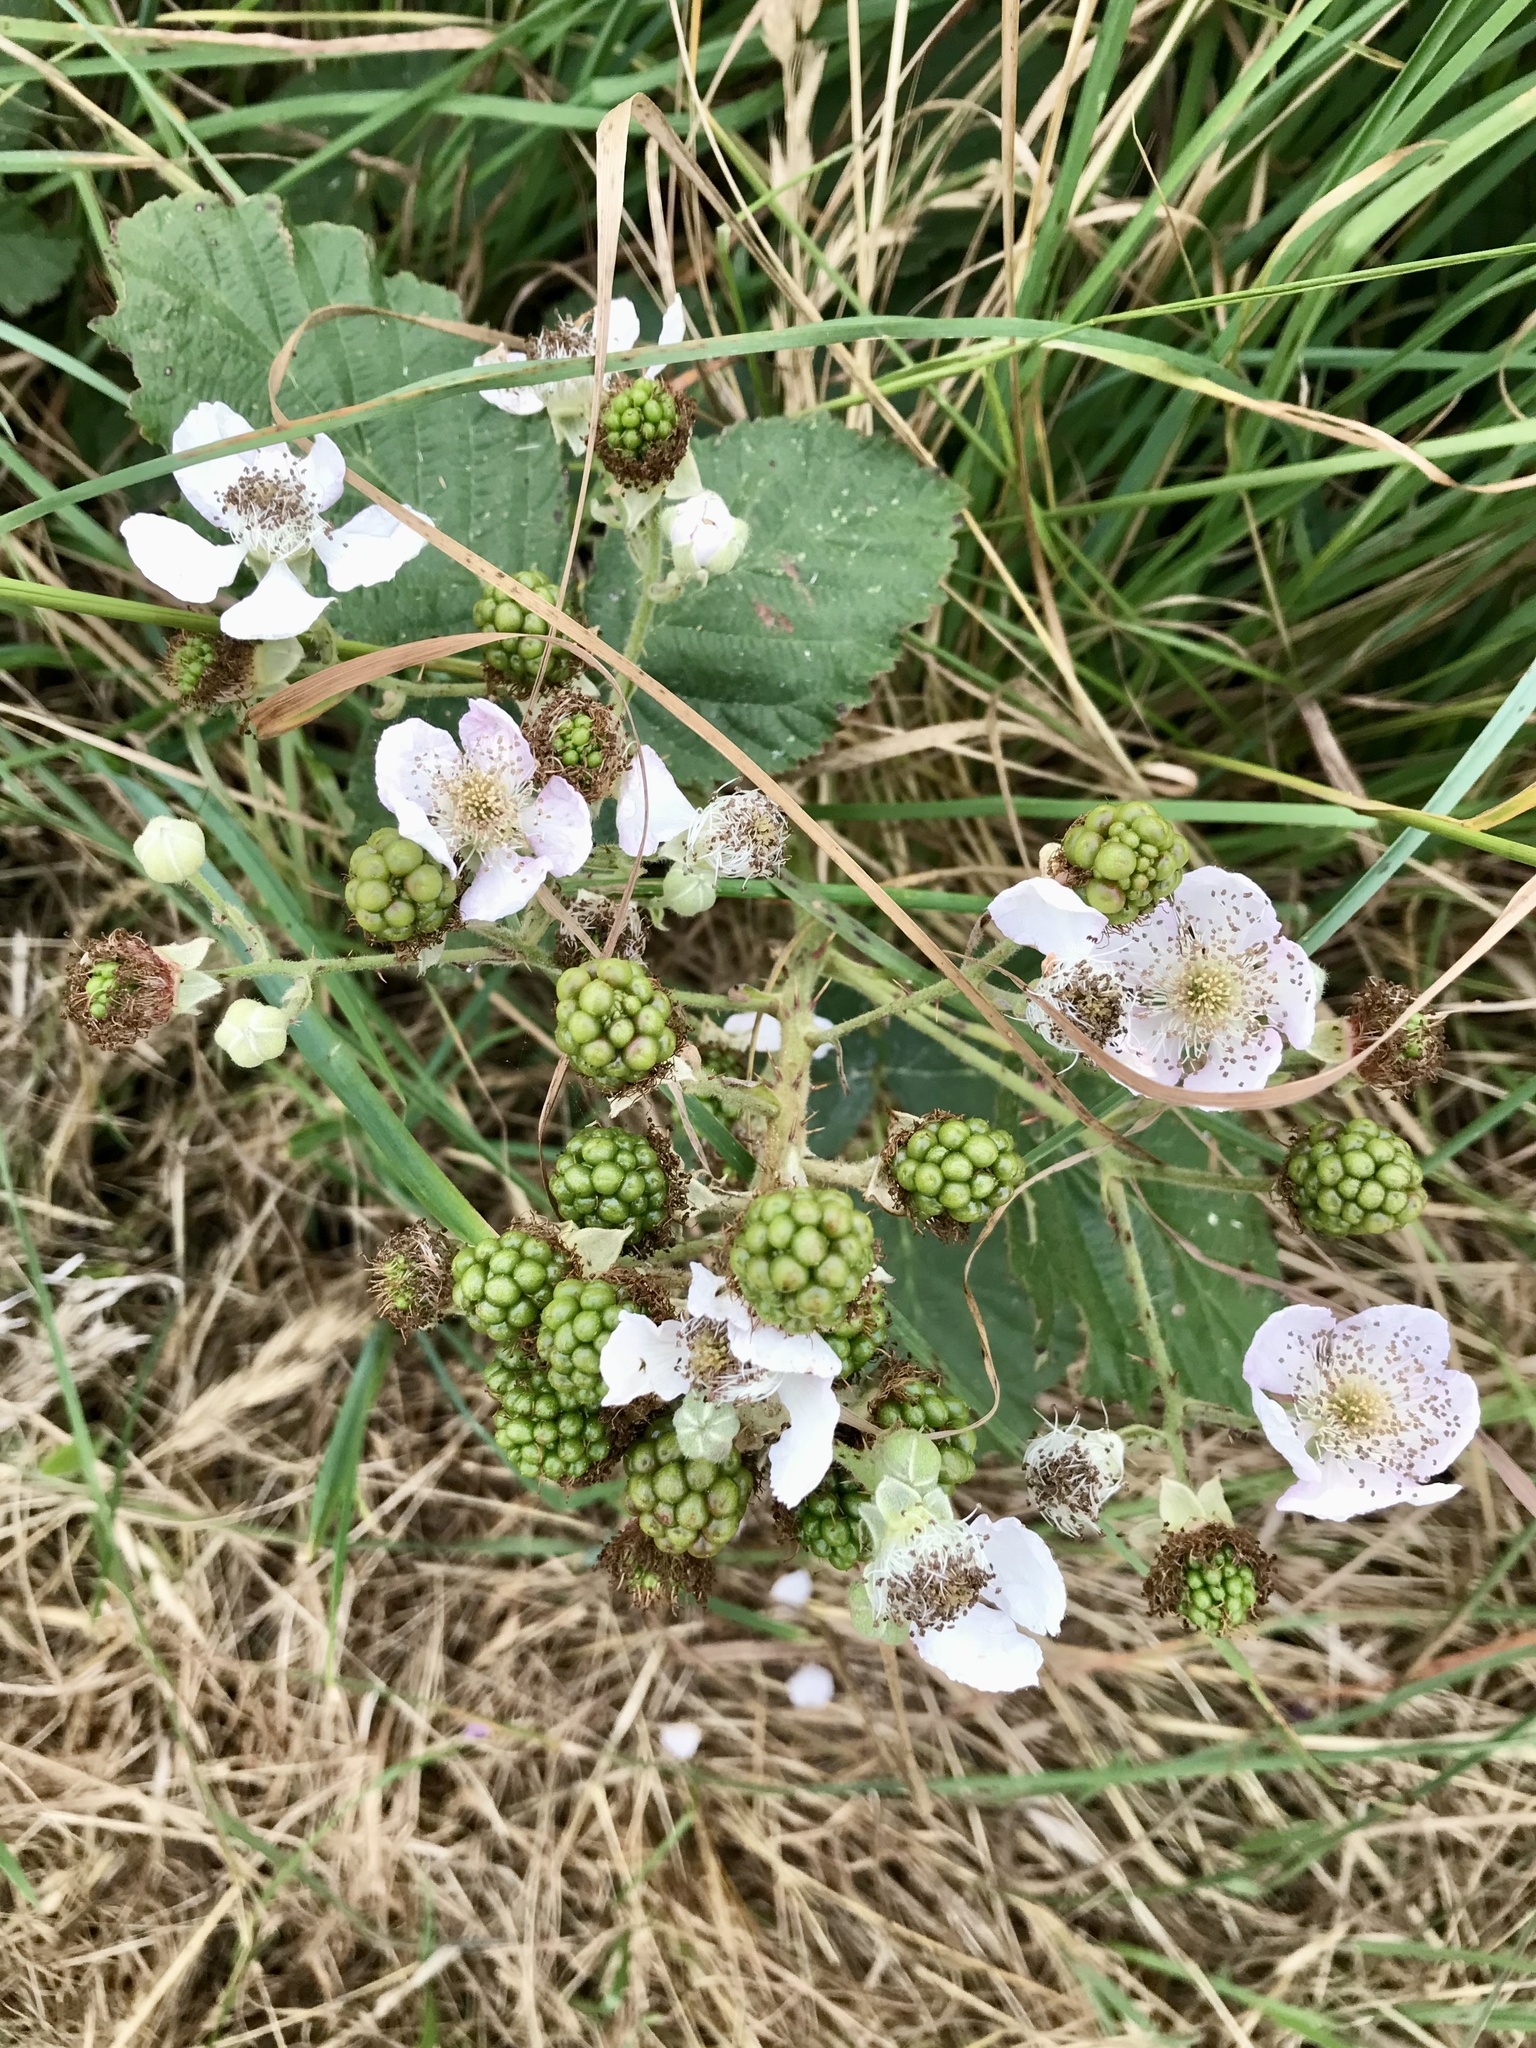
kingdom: Plantae
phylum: Tracheophyta
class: Magnoliopsida
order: Rosales
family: Rosaceae
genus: Rubus
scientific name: Rubus armeniacus
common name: Himalayan blackberry
